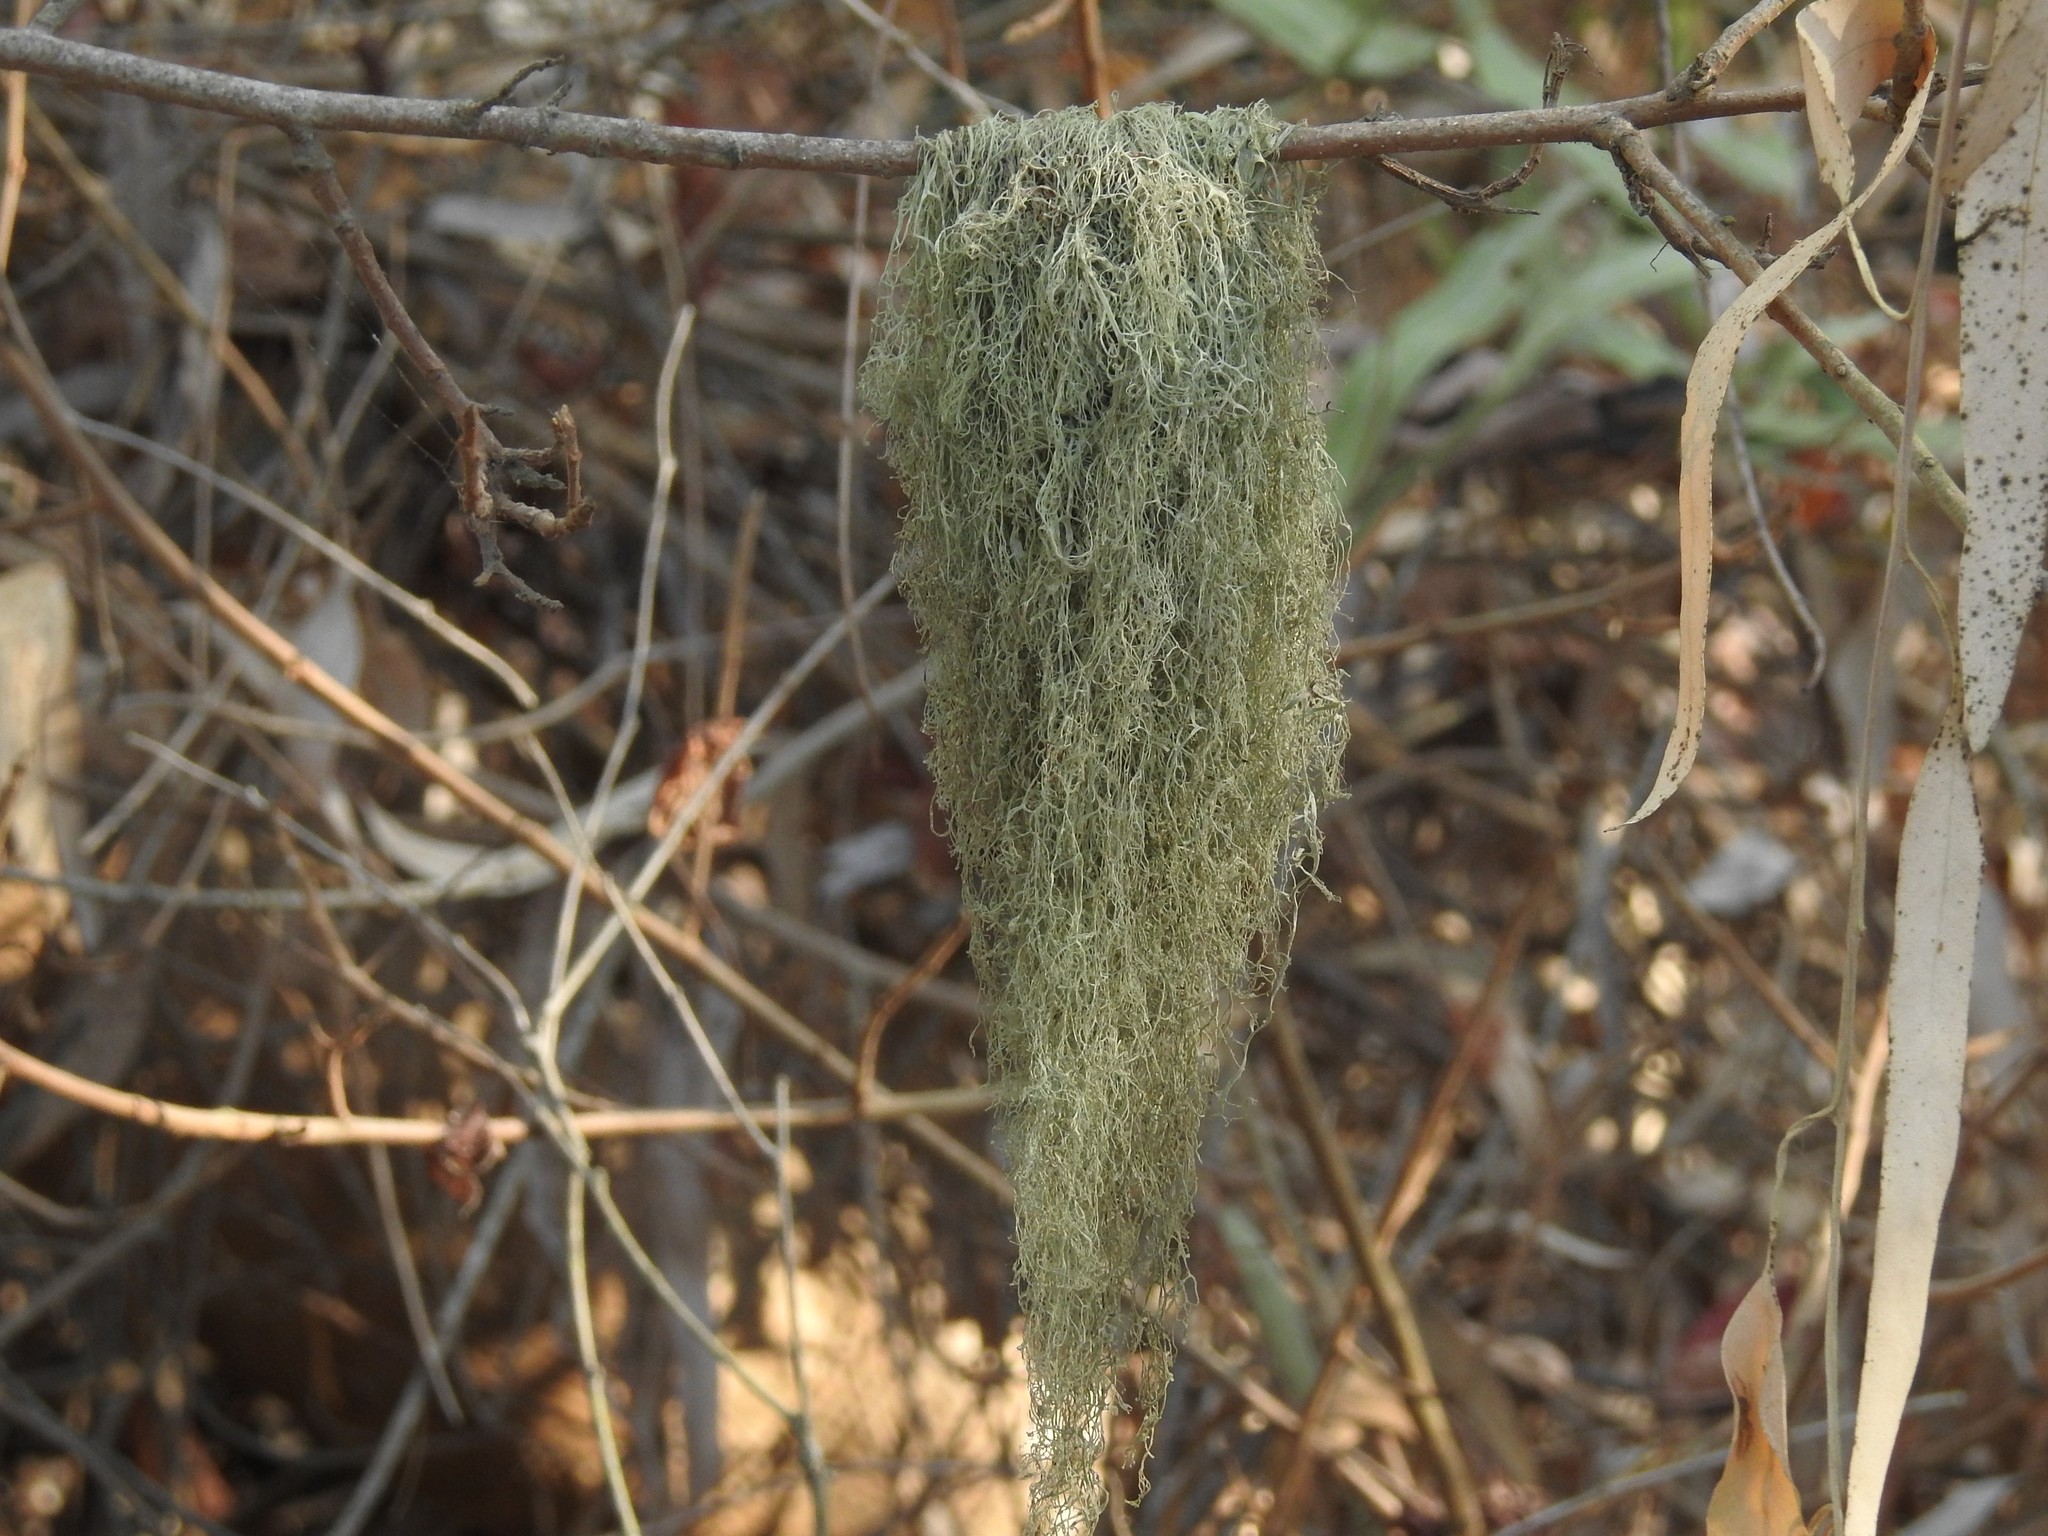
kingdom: Fungi
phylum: Ascomycota
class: Lecanoromycetes
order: Lecanorales
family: Ramalinaceae
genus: Ramalina
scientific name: Ramalina menziesii
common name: Lace lichen
